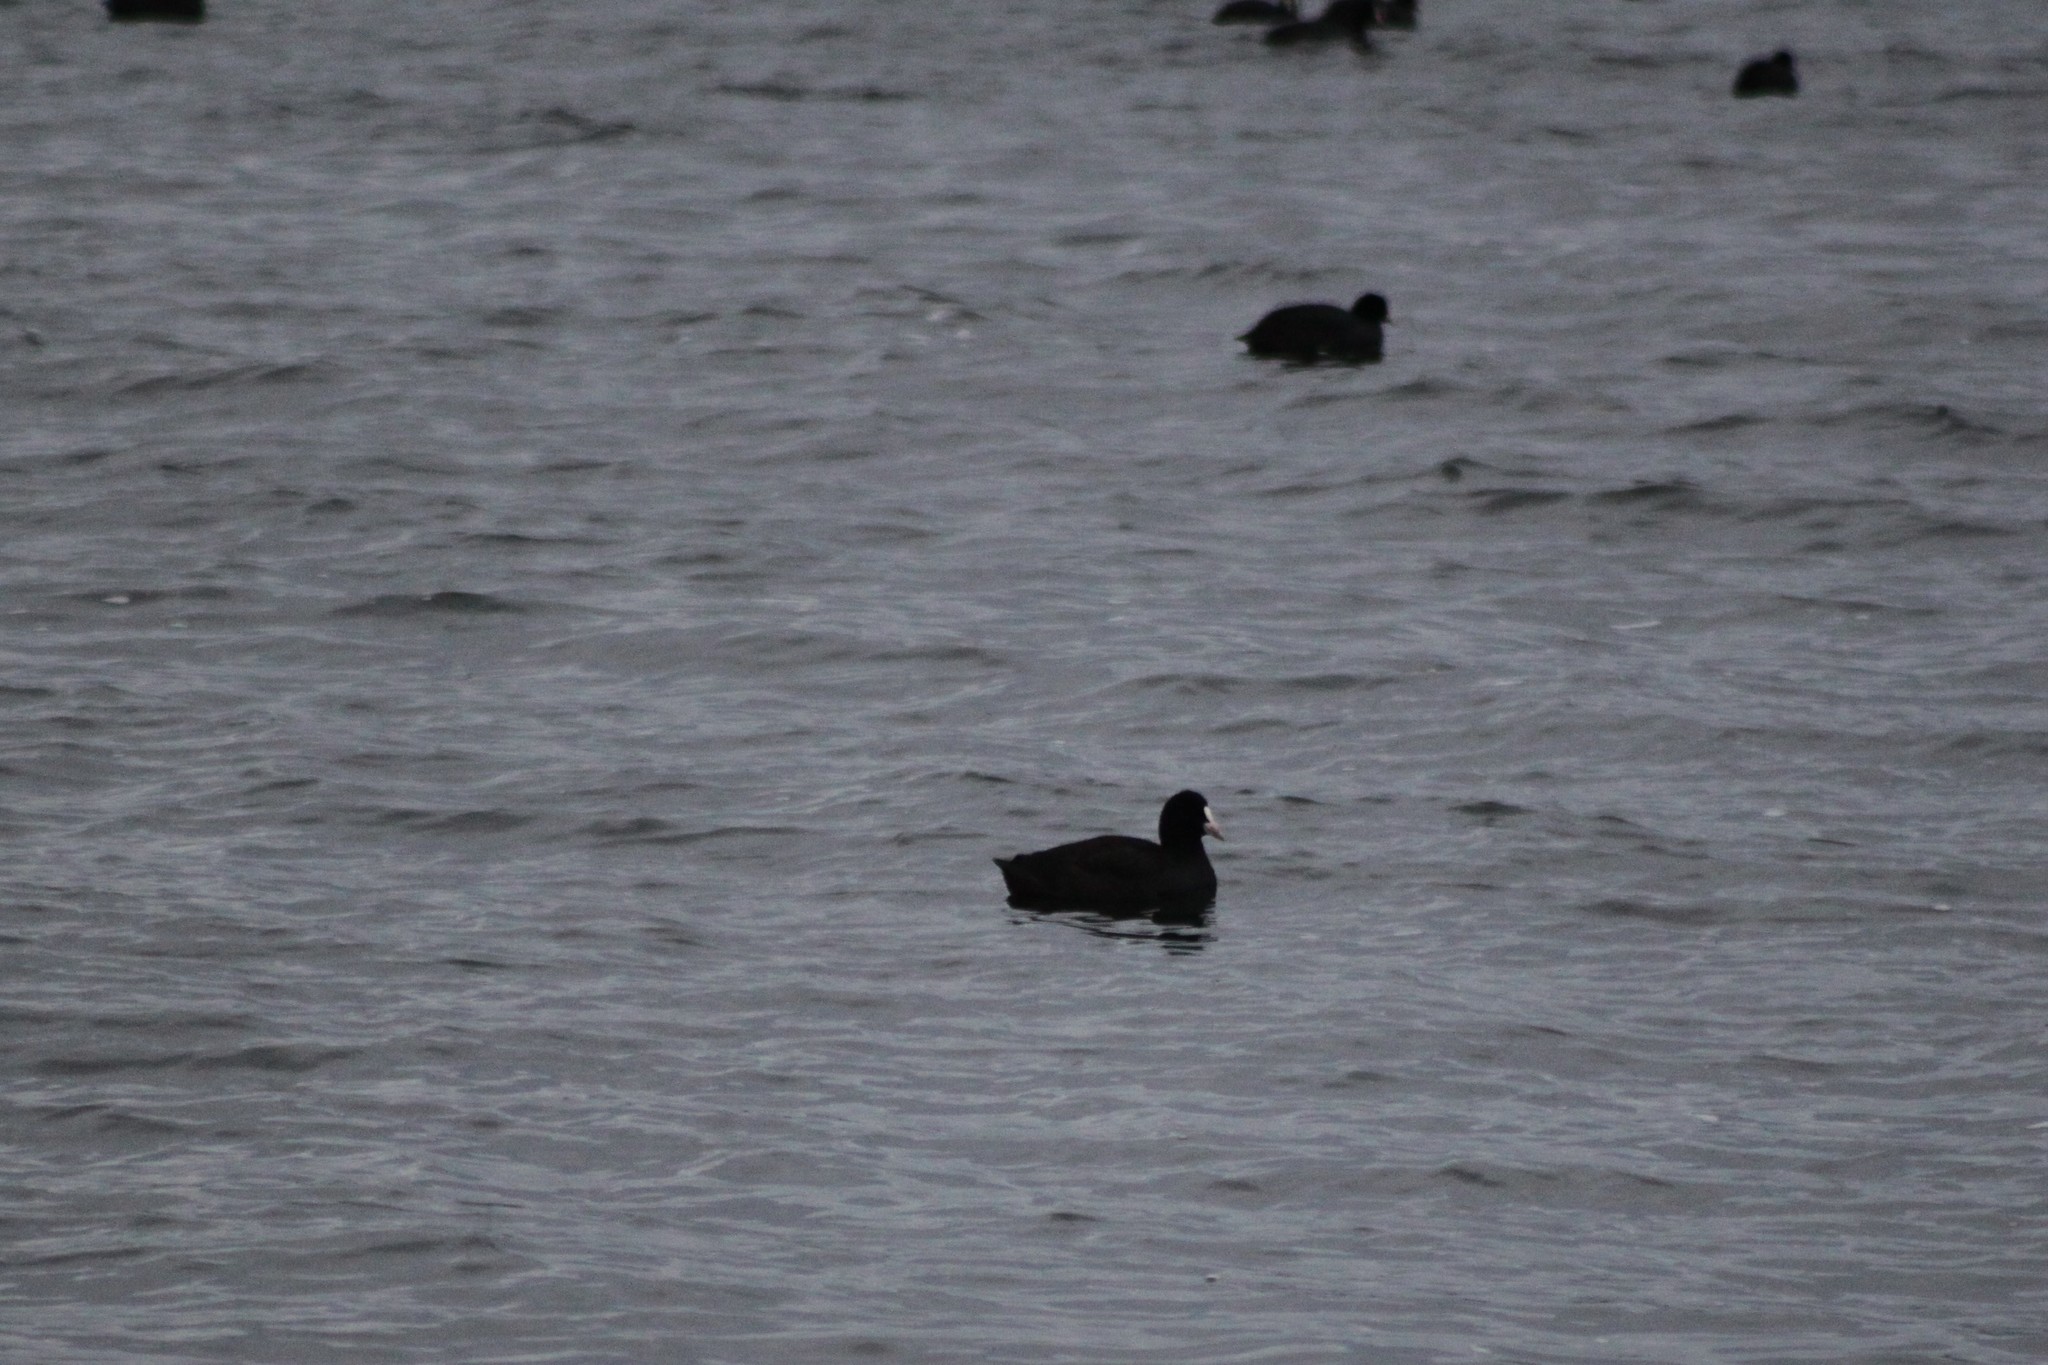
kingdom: Animalia
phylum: Chordata
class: Aves
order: Gruiformes
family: Rallidae
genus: Fulica
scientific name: Fulica atra
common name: Eurasian coot
